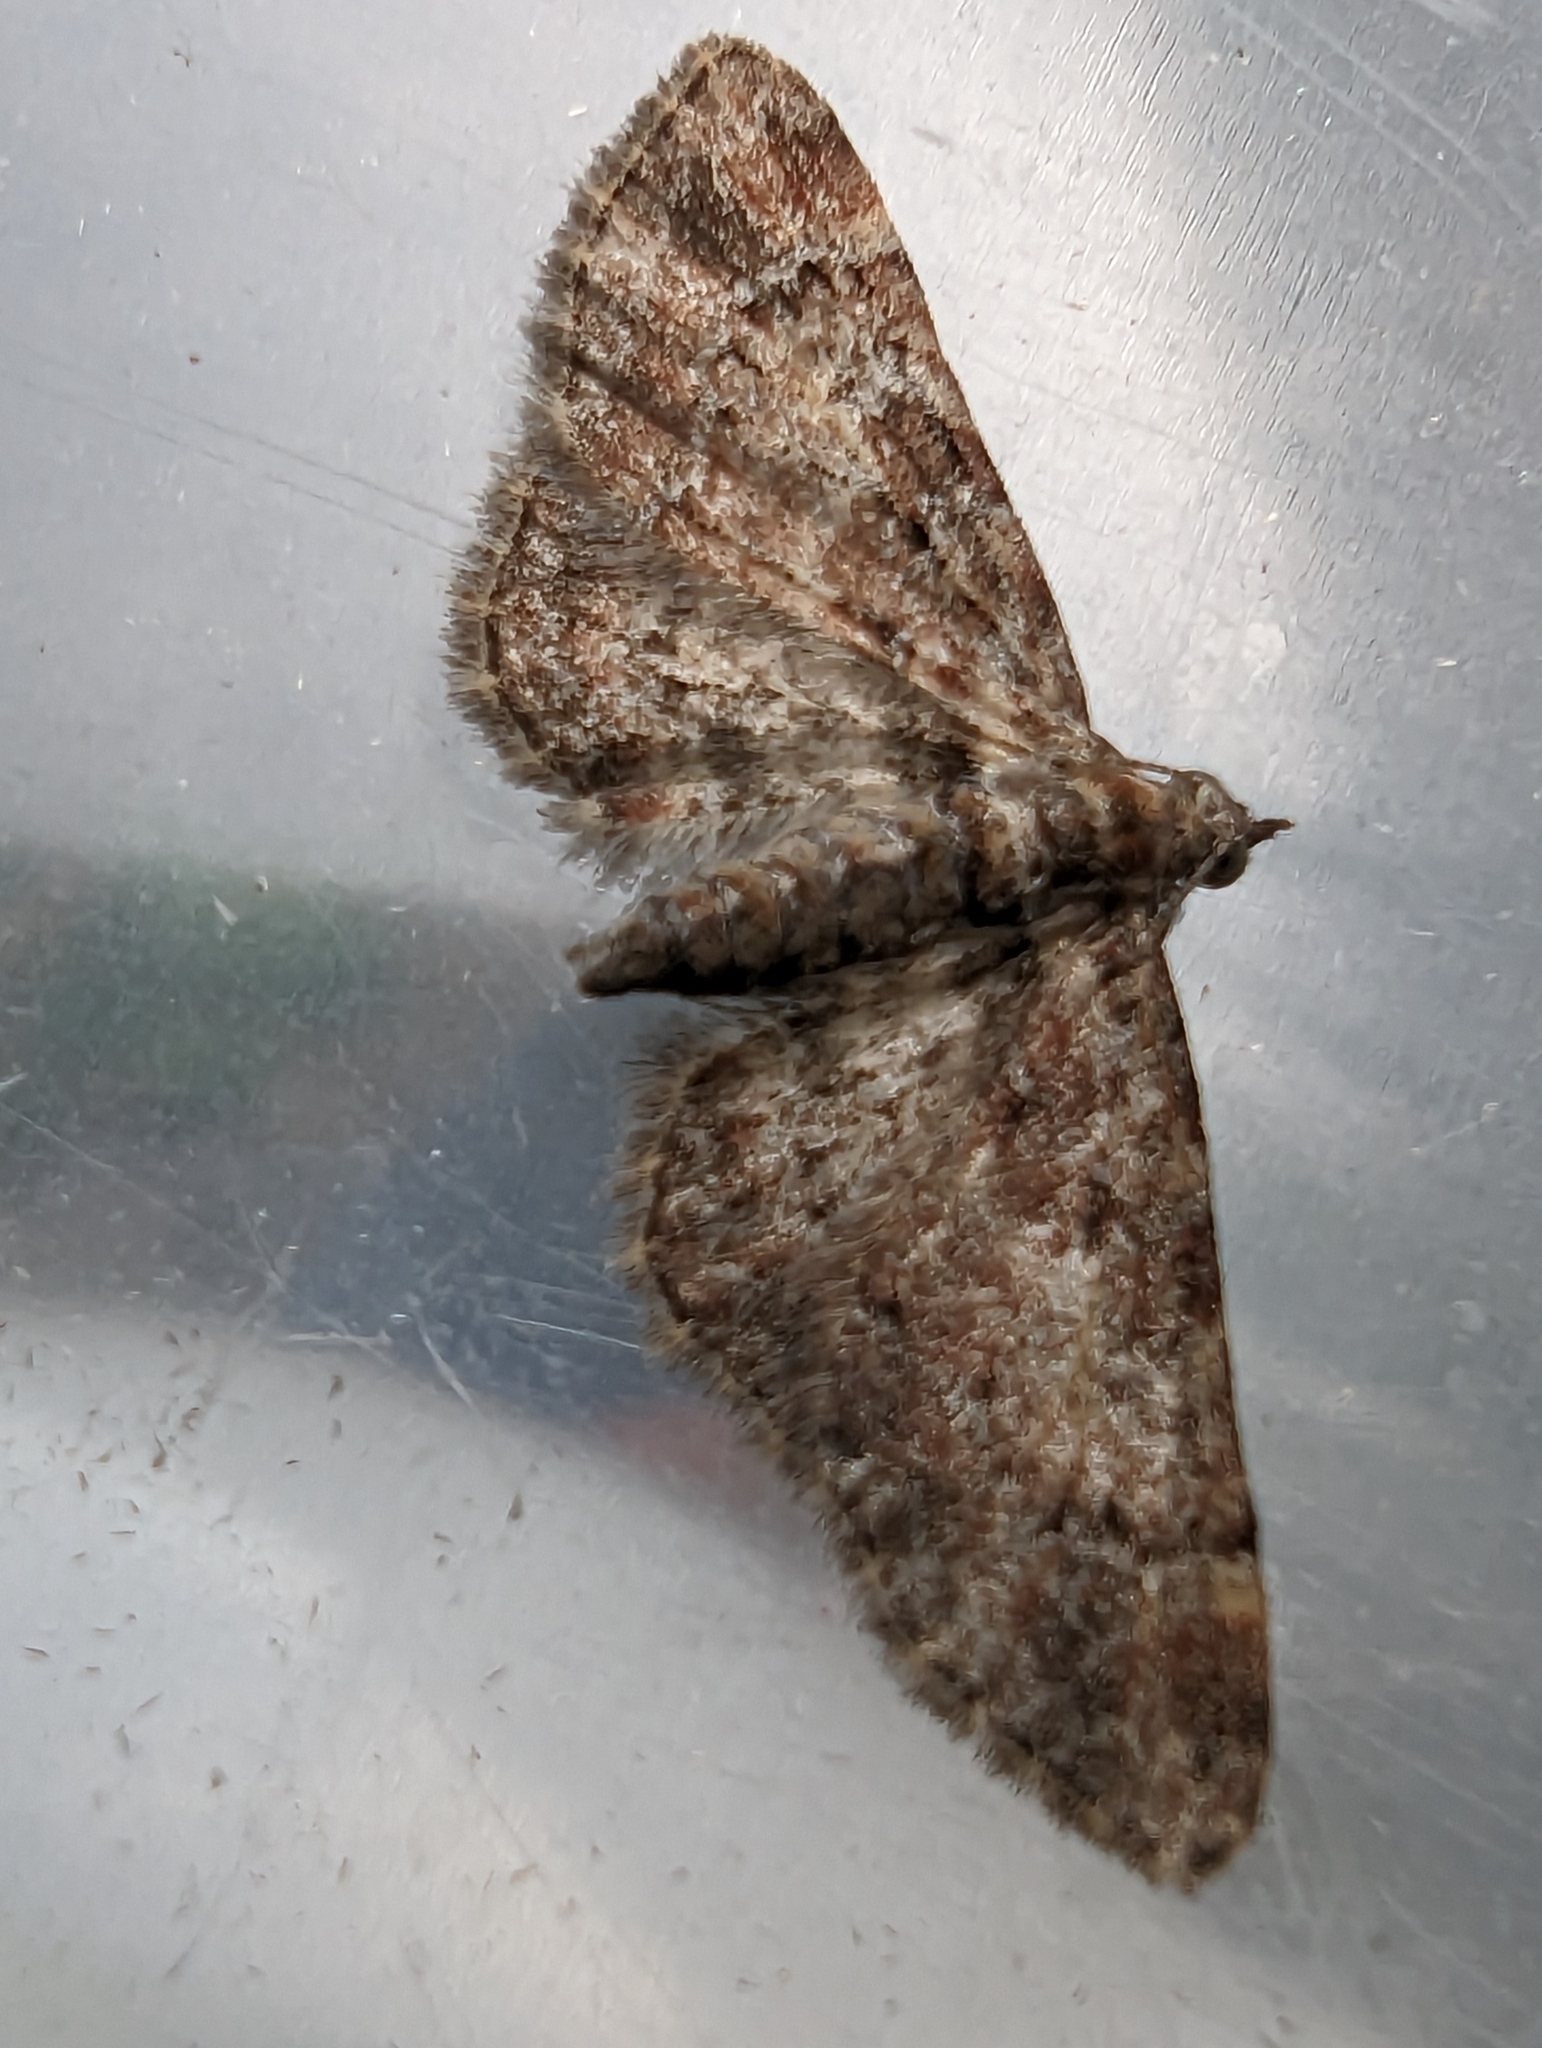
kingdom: Animalia
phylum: Arthropoda
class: Insecta
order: Lepidoptera
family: Geometridae
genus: Gymnoscelis
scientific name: Gymnoscelis rufifasciata
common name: Double-striped pug
